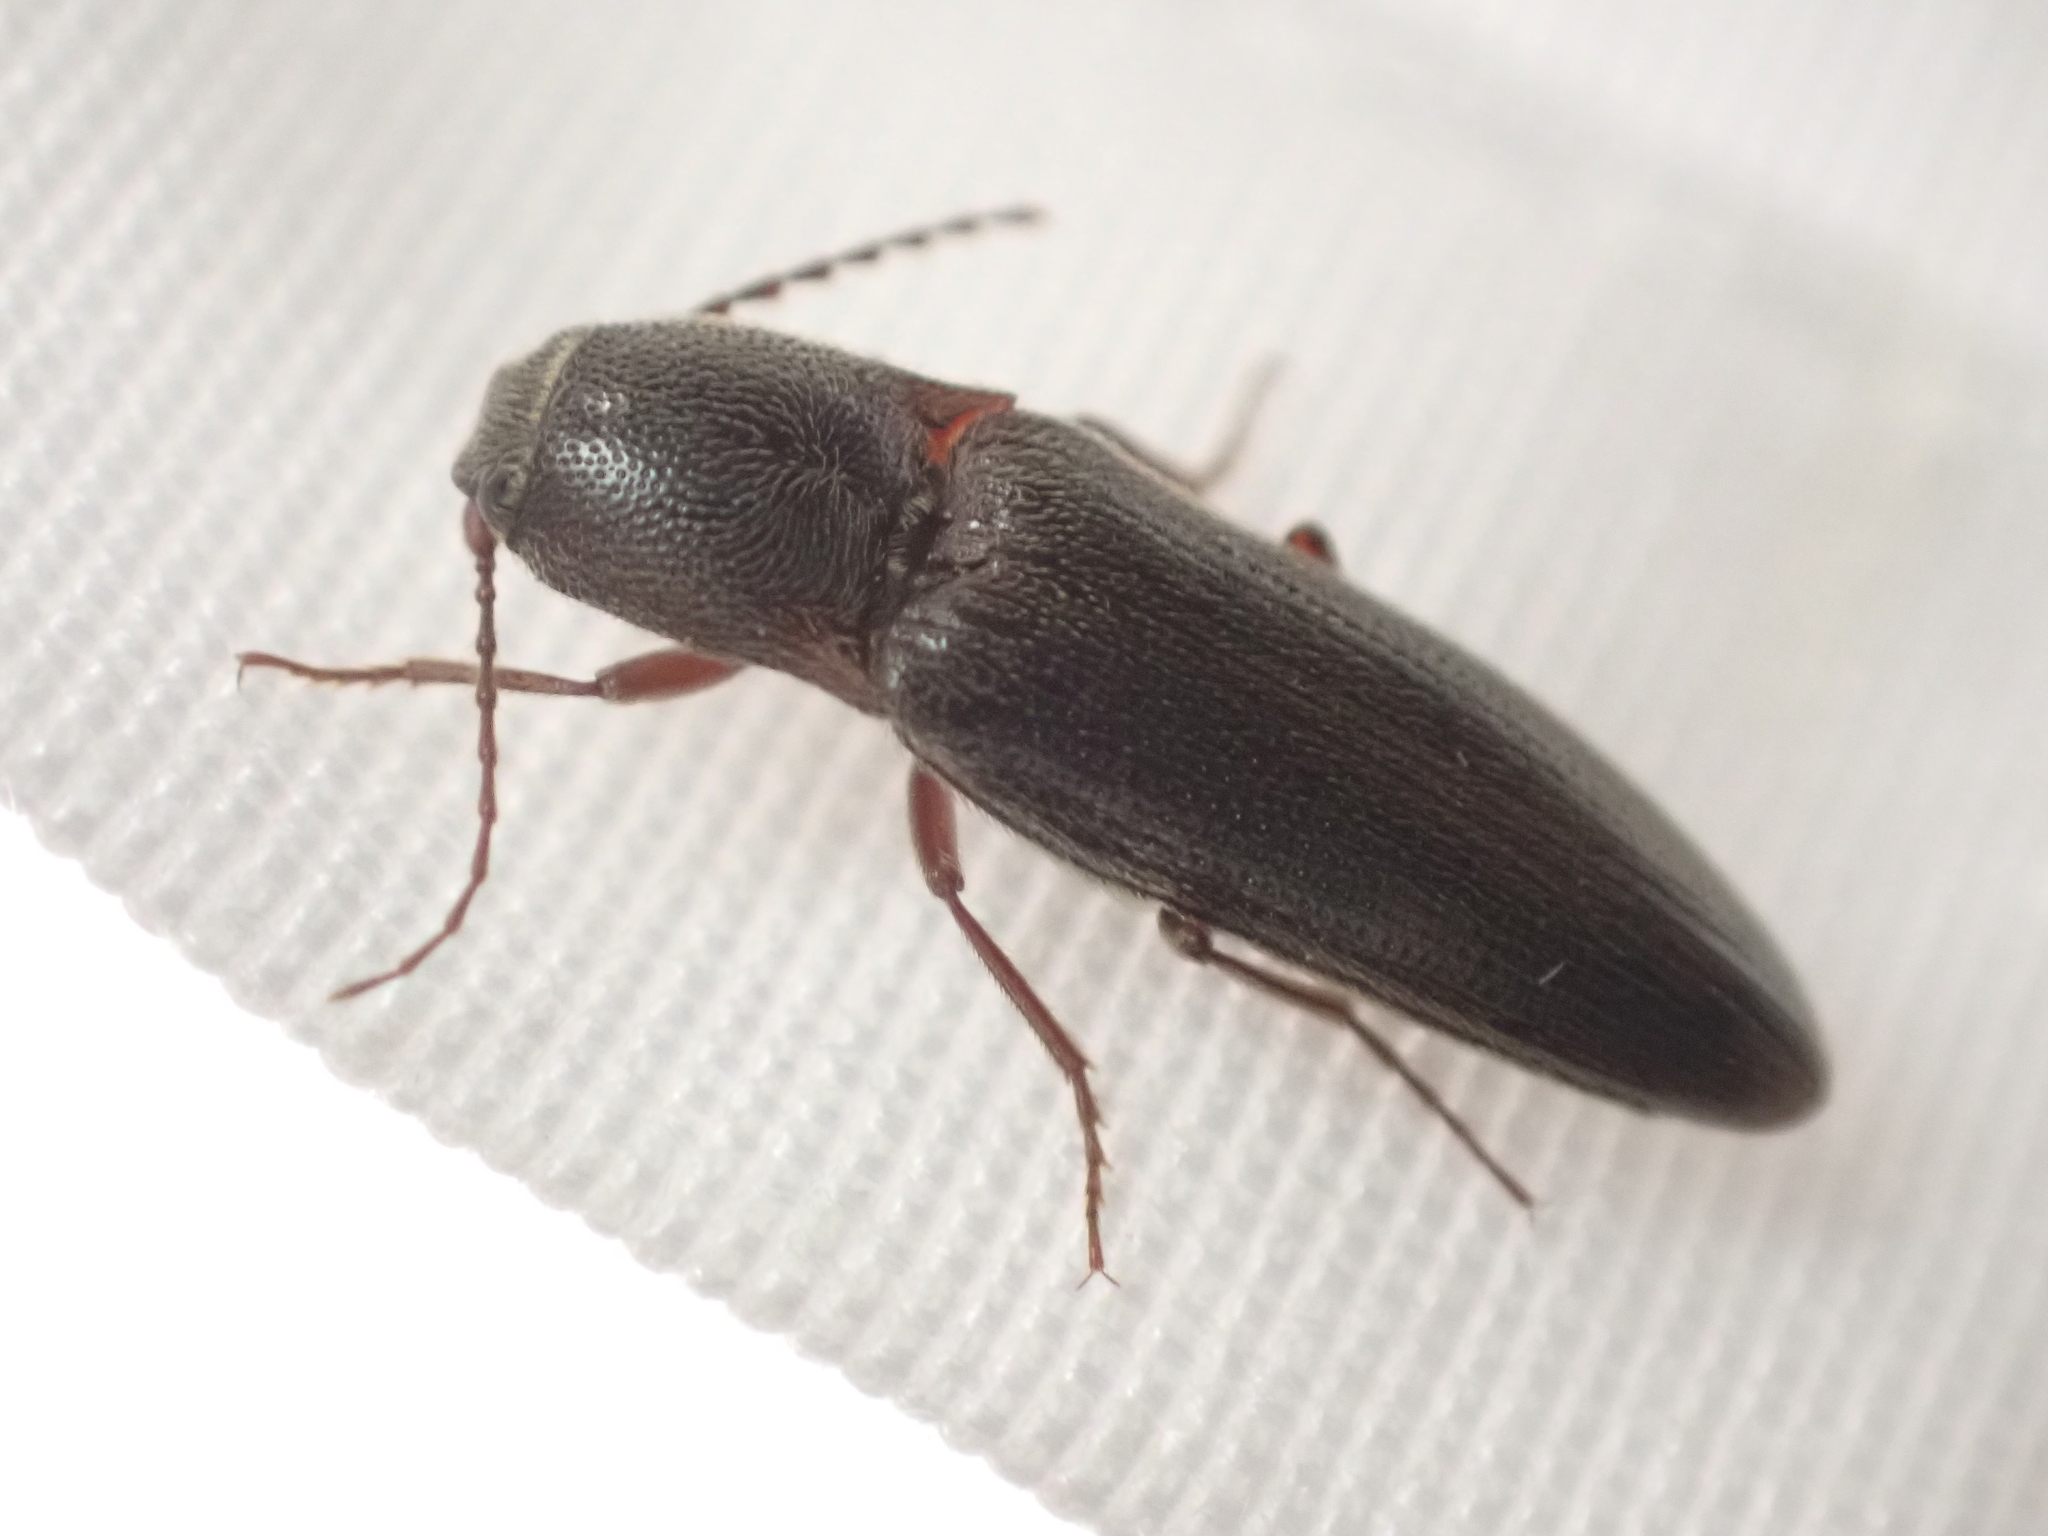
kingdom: Animalia
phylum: Arthropoda
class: Insecta
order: Coleoptera
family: Elateridae
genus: Melanotus
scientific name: Melanotus longulus
